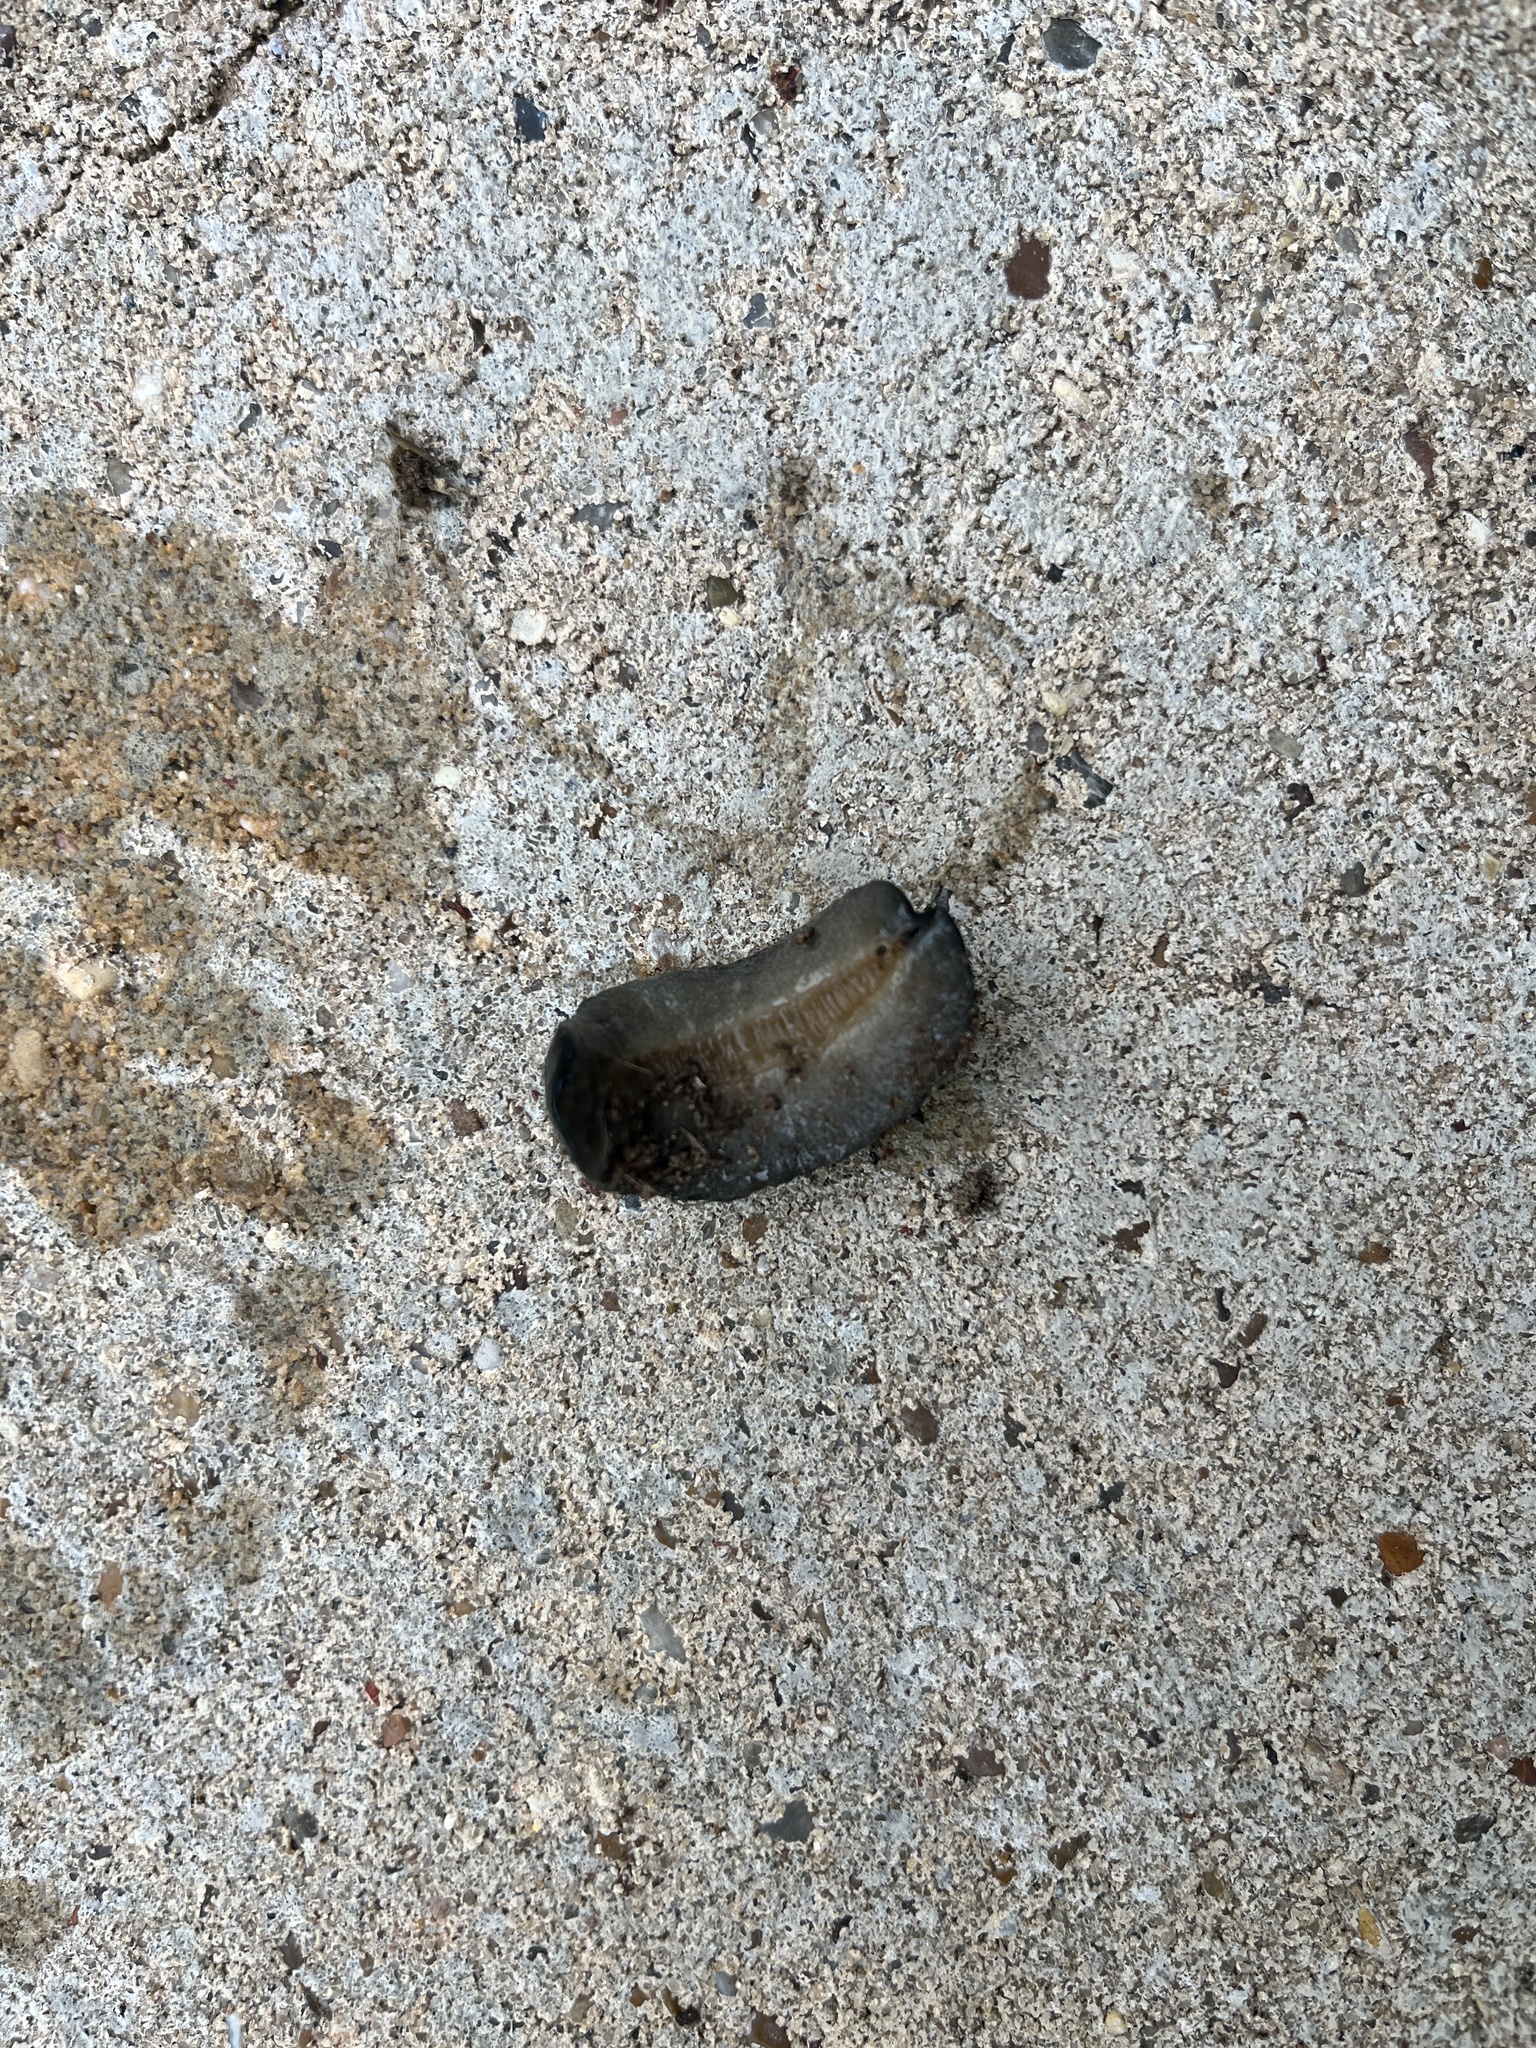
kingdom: Animalia
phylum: Mollusca
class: Gastropoda
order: Systellommatophora
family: Veronicellidae
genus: Belocaulus
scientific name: Belocaulus angustipes
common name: Black velvet leatherleaf slug
